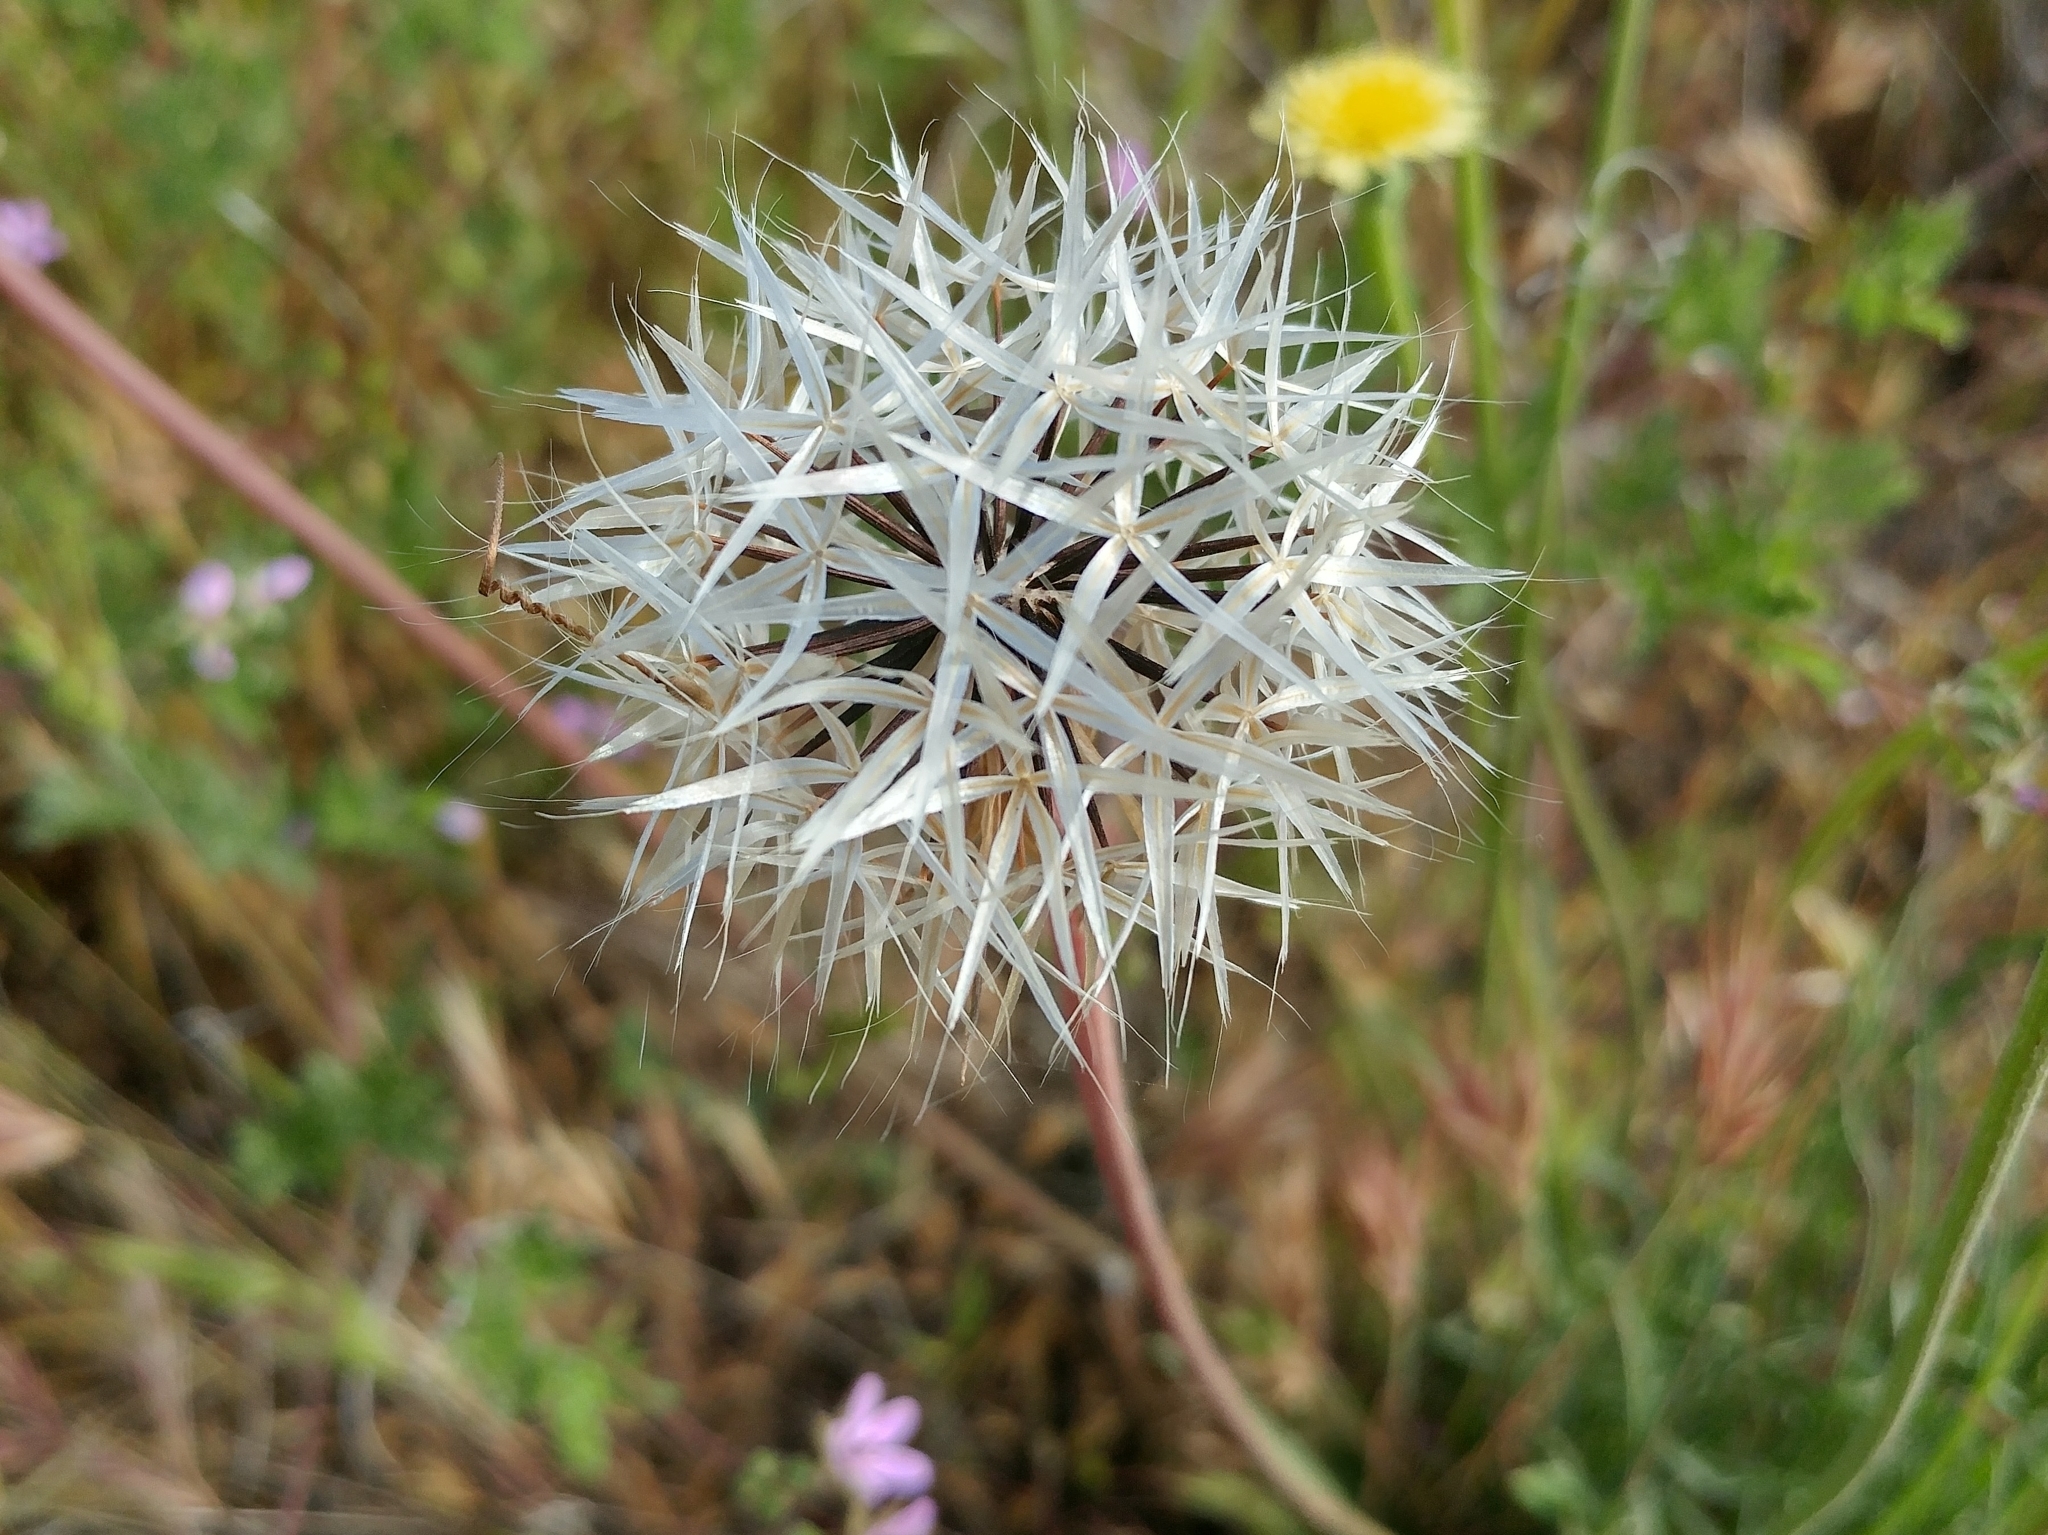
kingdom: Plantae
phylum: Tracheophyta
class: Magnoliopsida
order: Asterales
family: Asteraceae
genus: Microseris
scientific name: Microseris lindleyi
